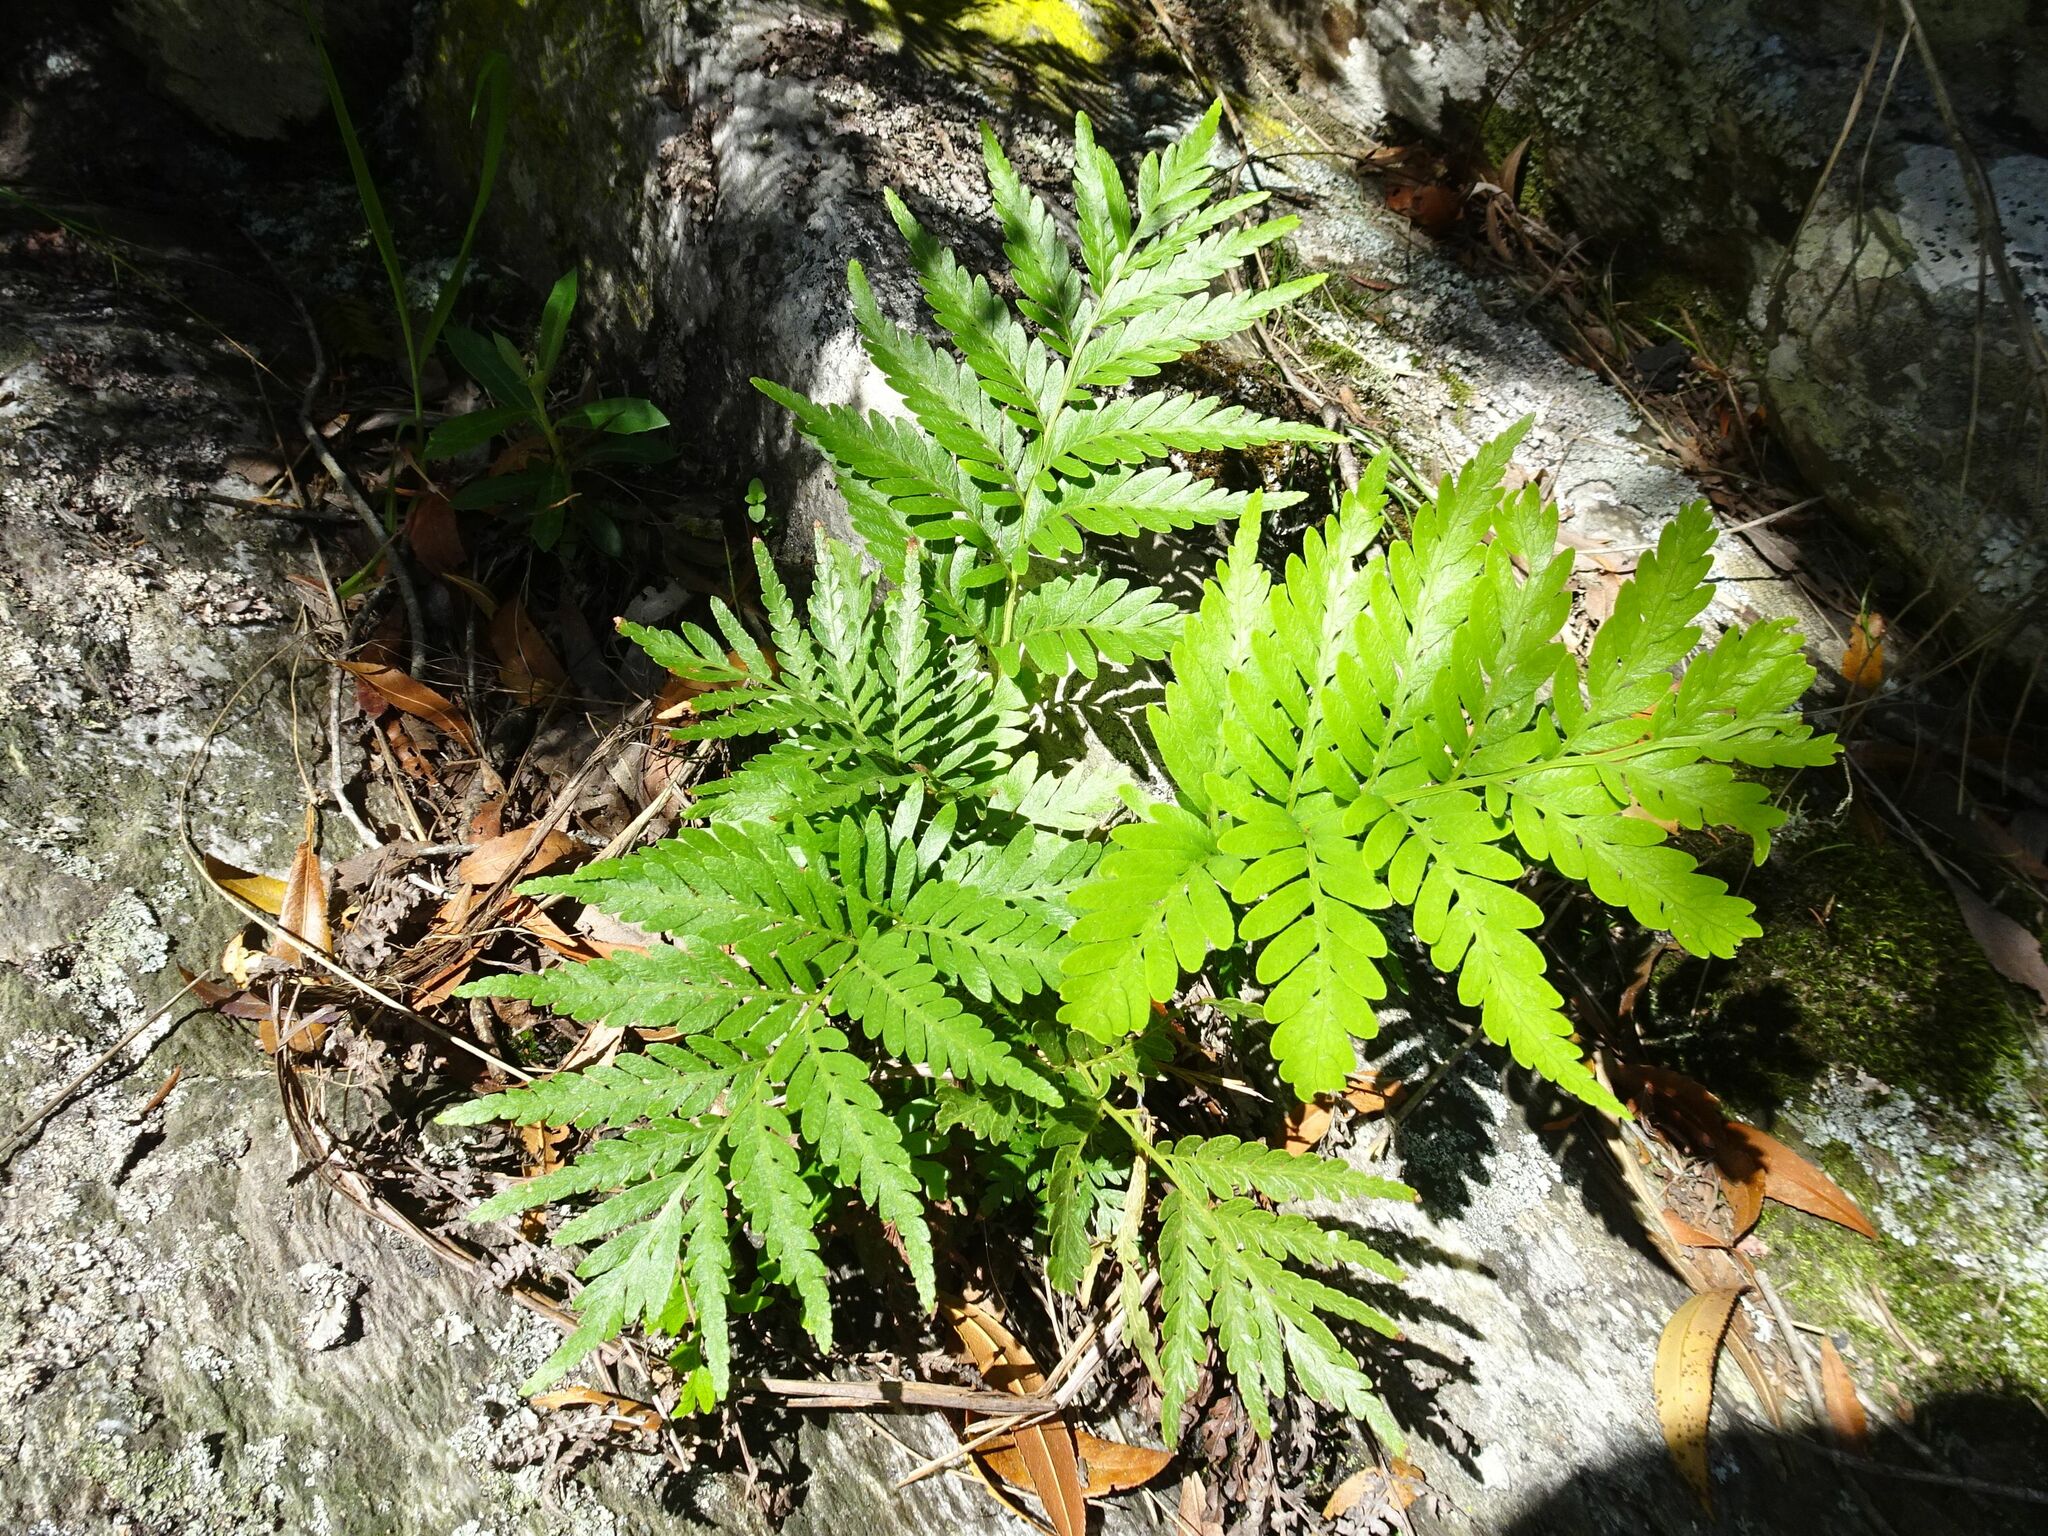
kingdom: Plantae
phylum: Tracheophyta
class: Polypodiopsida
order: Osmundales
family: Osmundaceae
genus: Todea
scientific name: Todea barbara
